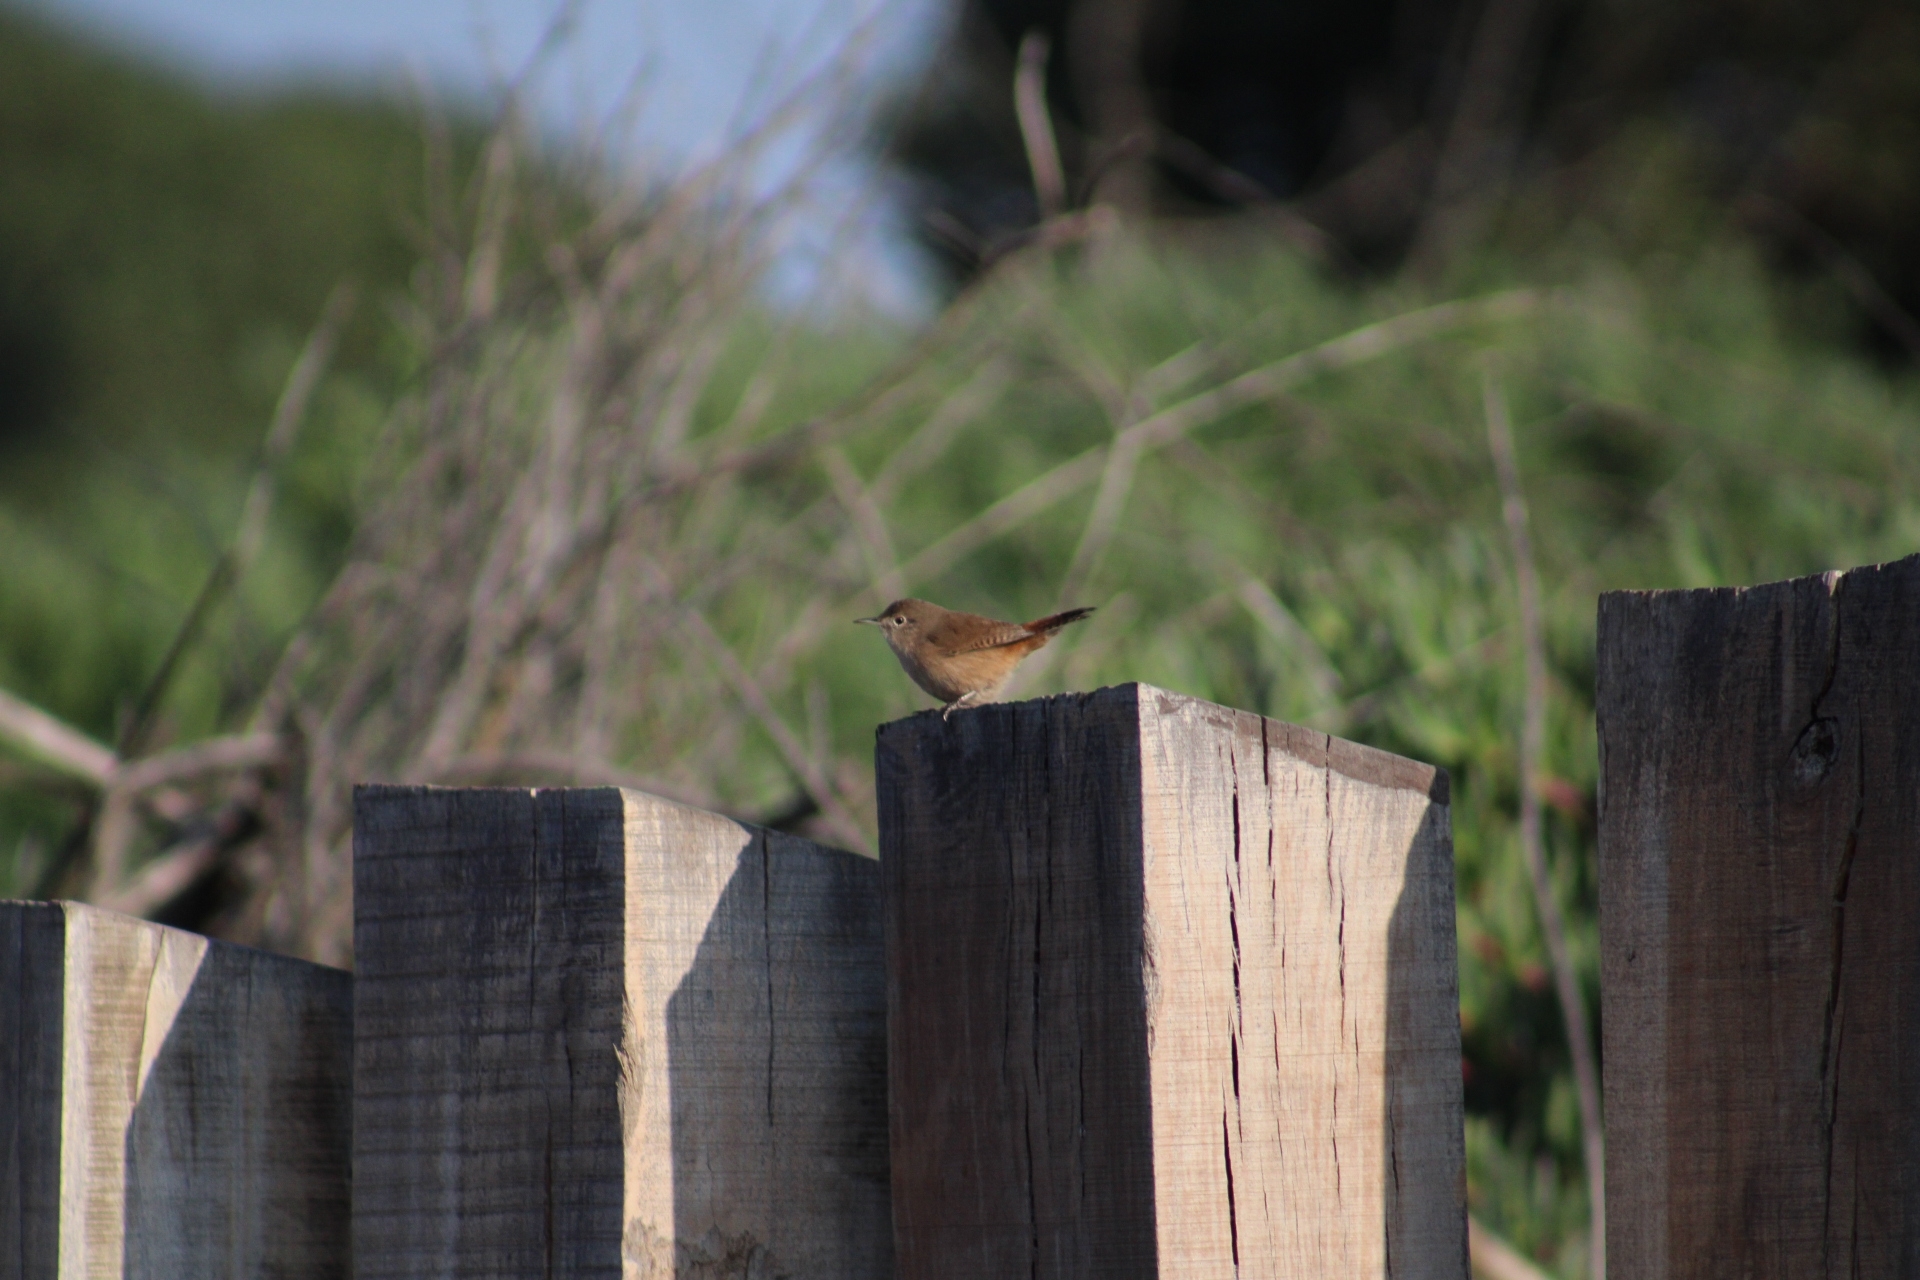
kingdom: Animalia
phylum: Chordata
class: Aves
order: Passeriformes
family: Troglodytidae
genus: Troglodytes
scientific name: Troglodytes aedon
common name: House wren
